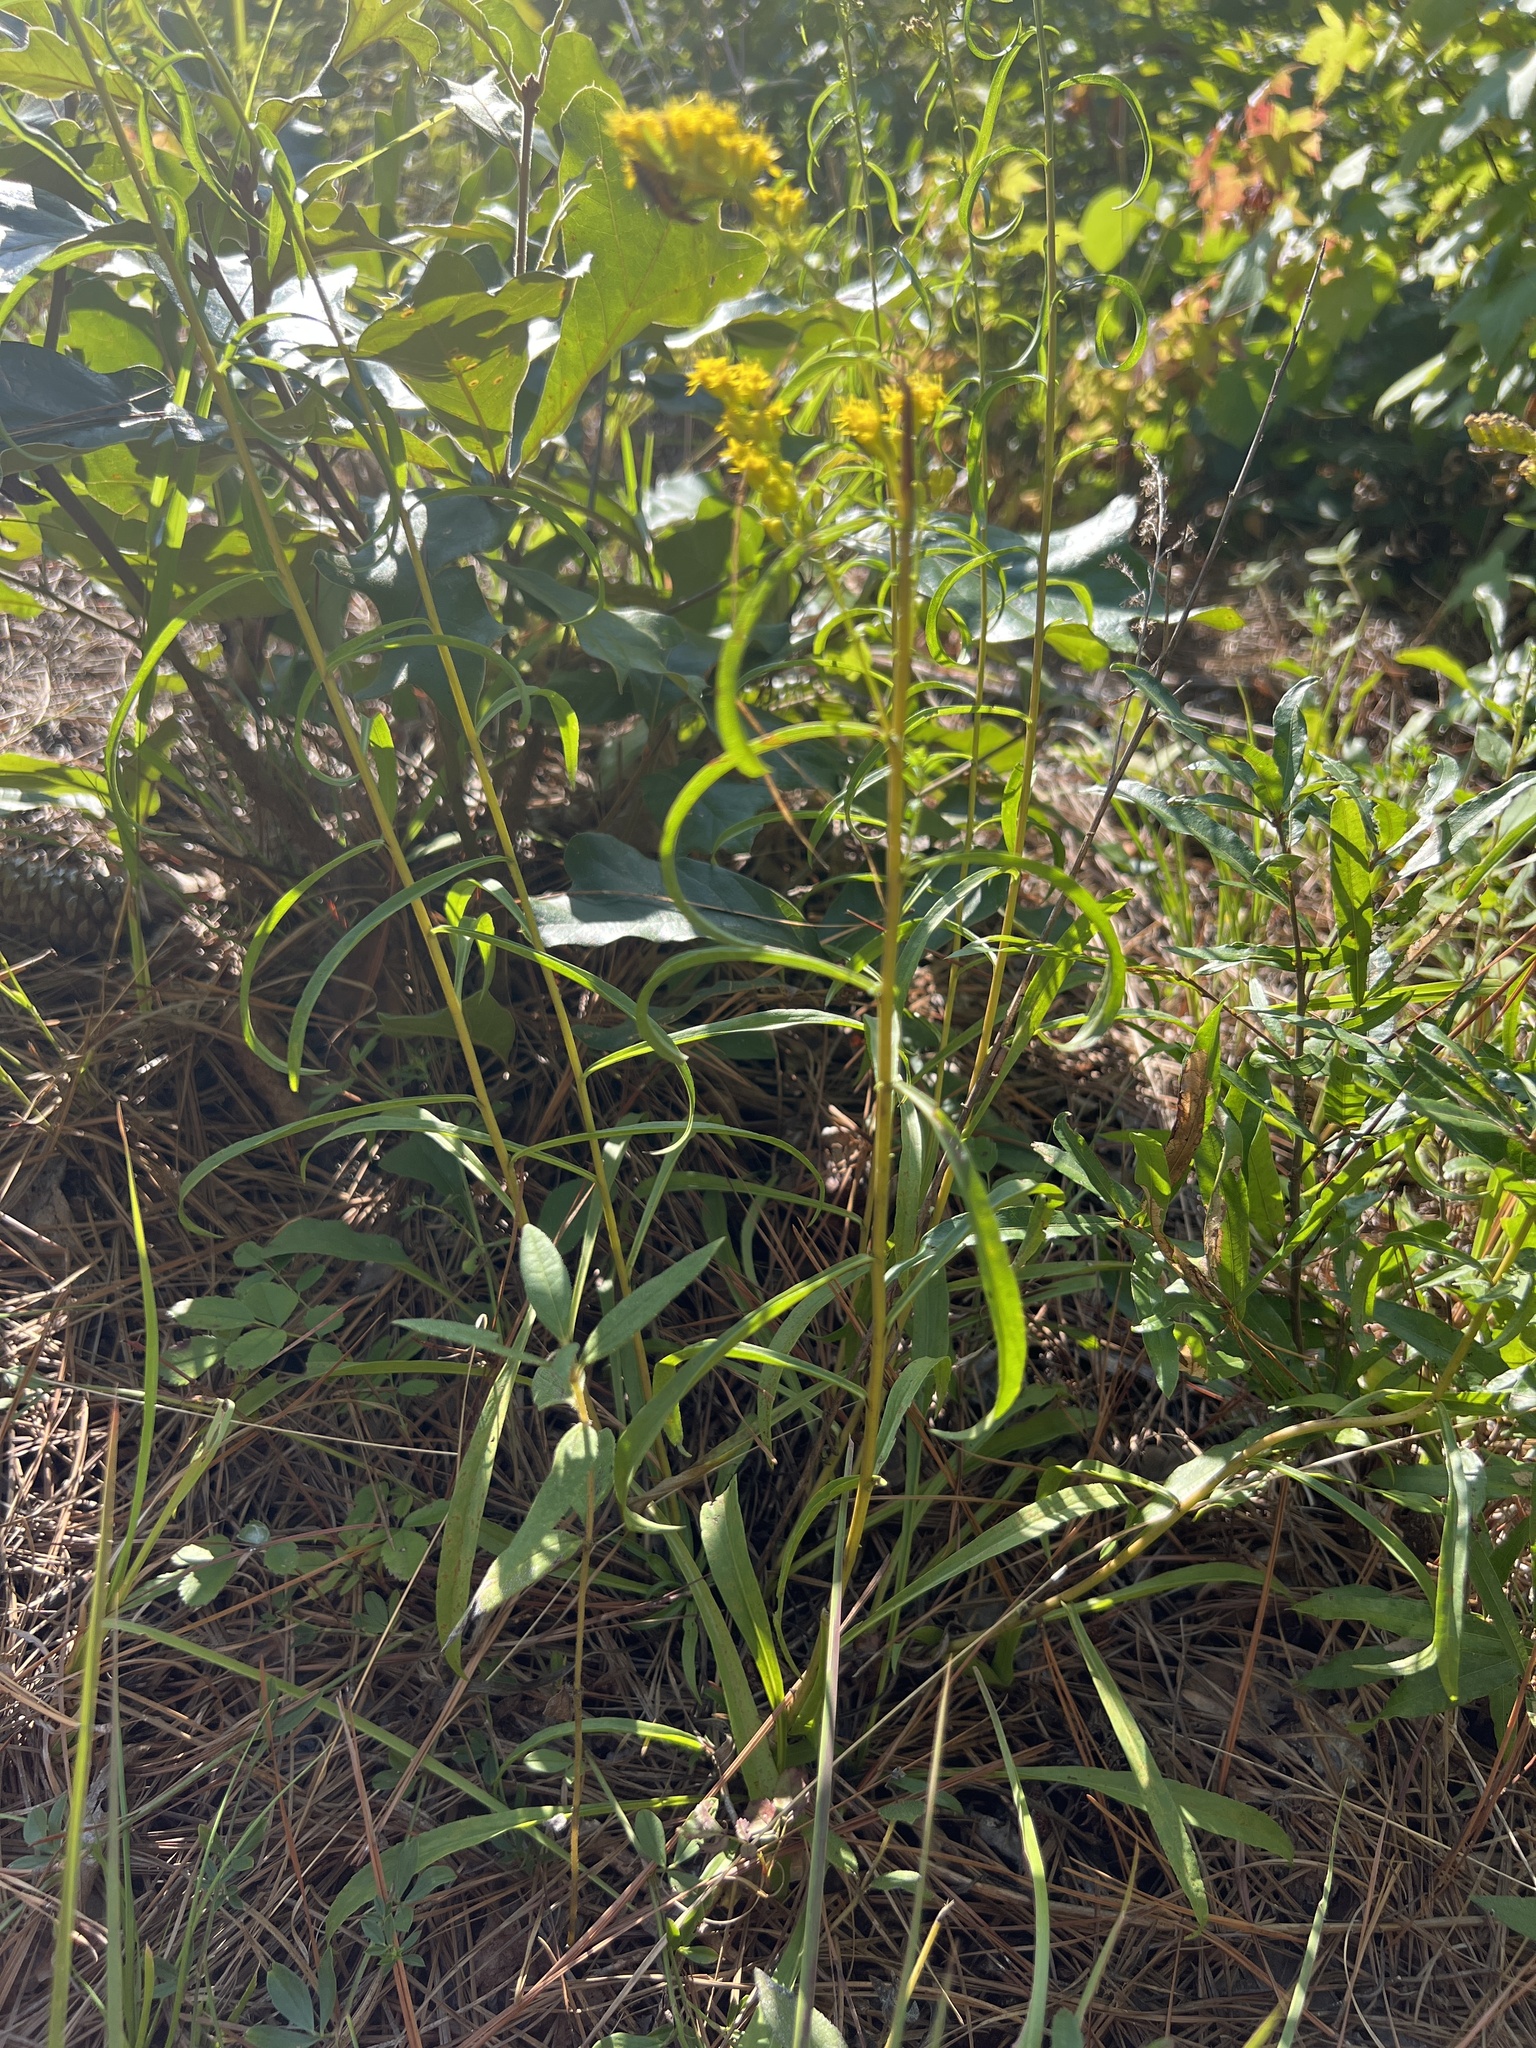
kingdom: Plantae
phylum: Tracheophyta
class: Magnoliopsida
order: Asterales
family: Asteraceae
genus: Solidago
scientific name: Solidago pinetorum
